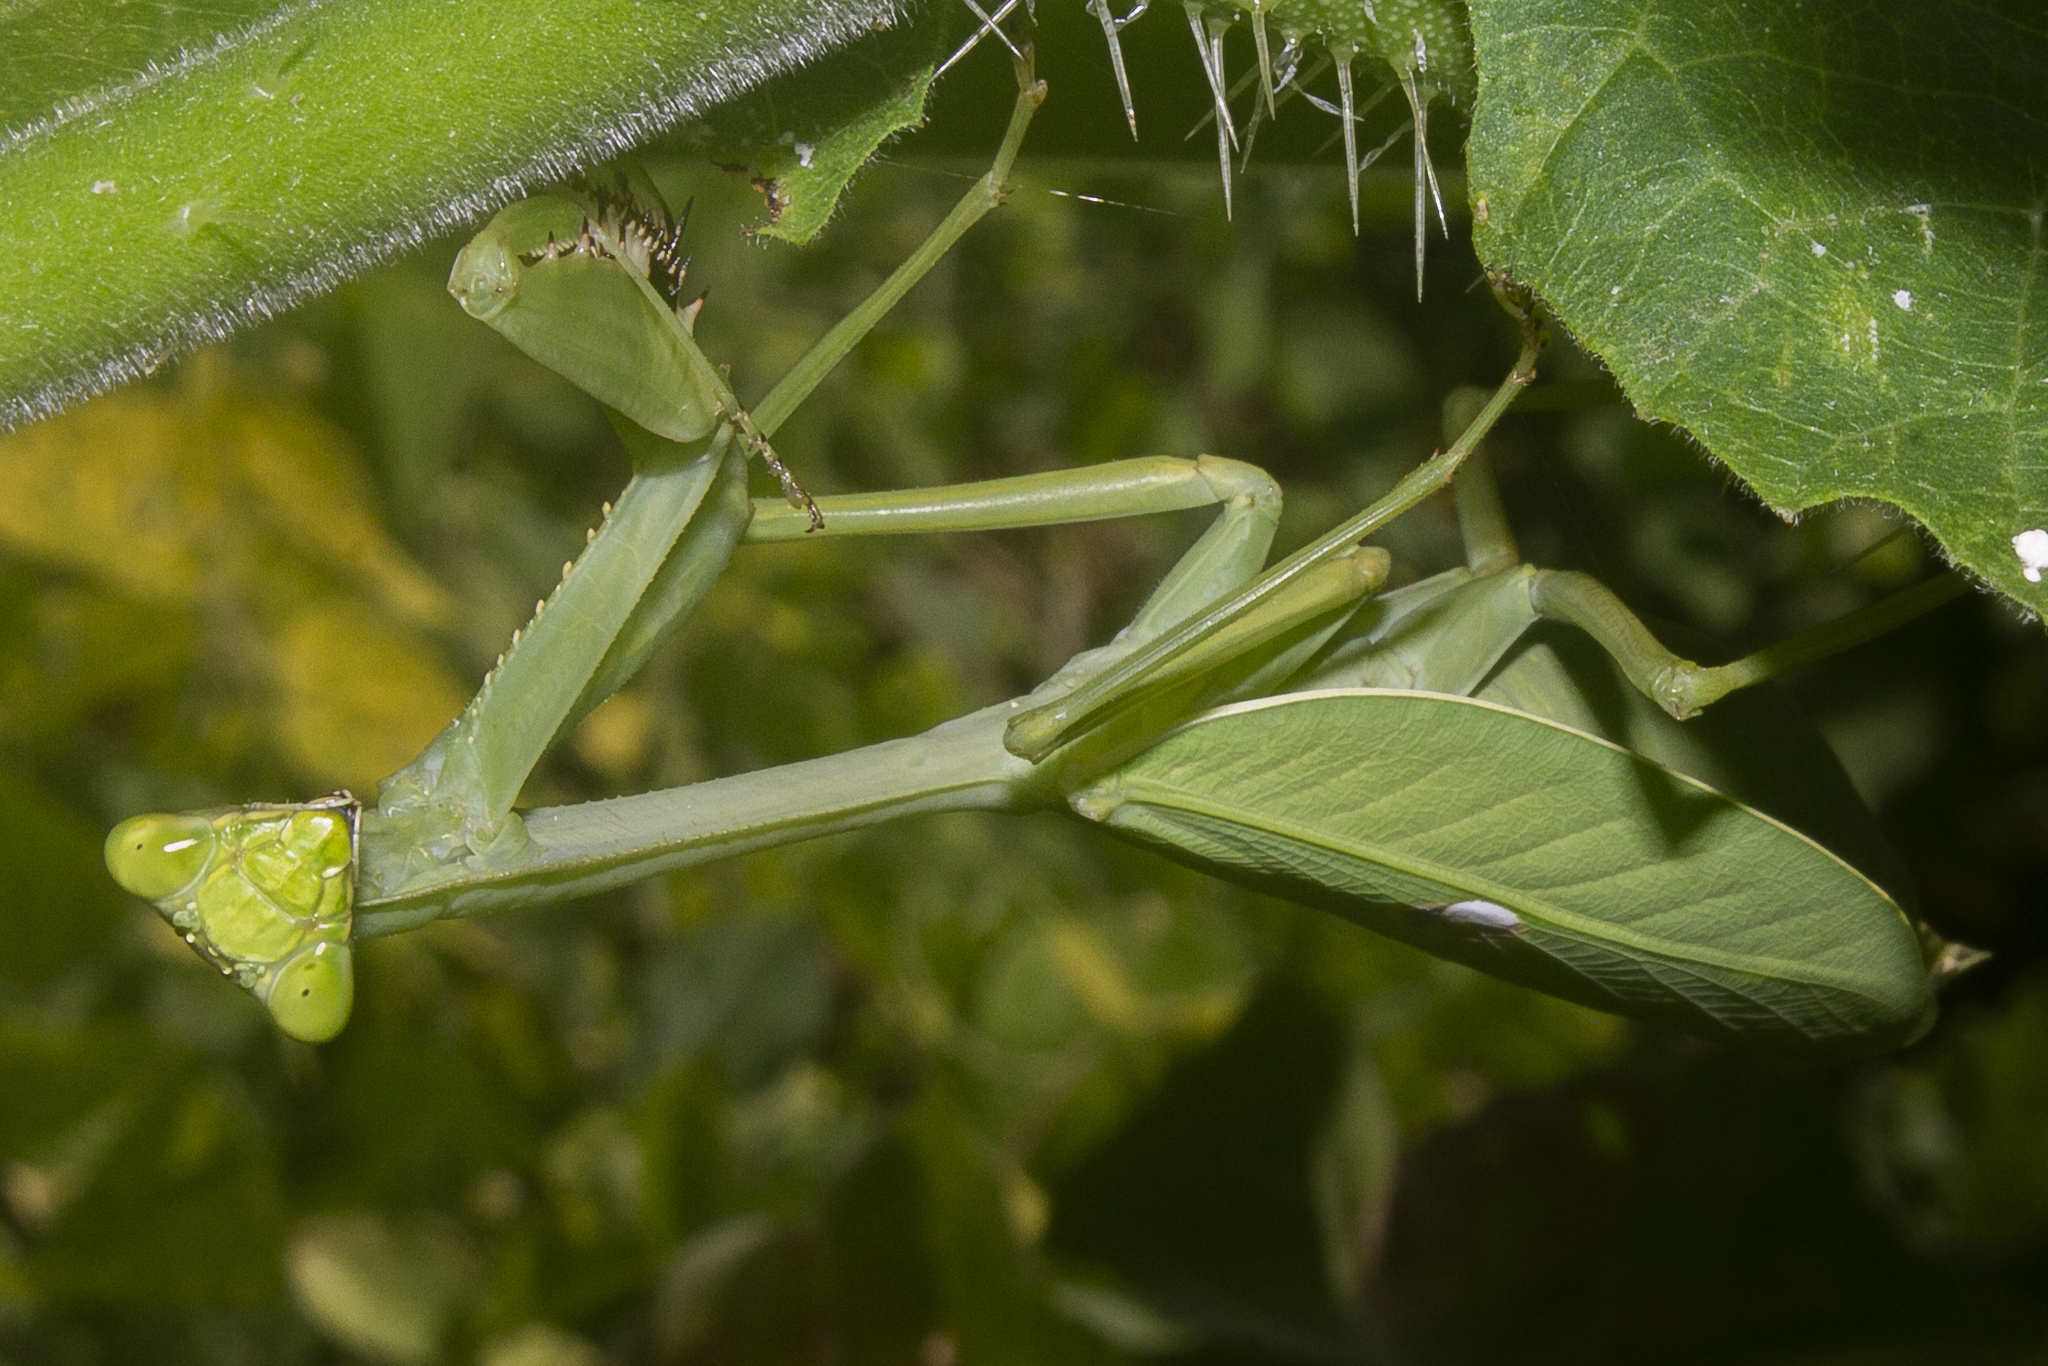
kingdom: Animalia
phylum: Arthropoda
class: Insecta
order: Mantodea
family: Mantidae
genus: Stagmatoptera
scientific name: Stagmatoptera septentrionalis
